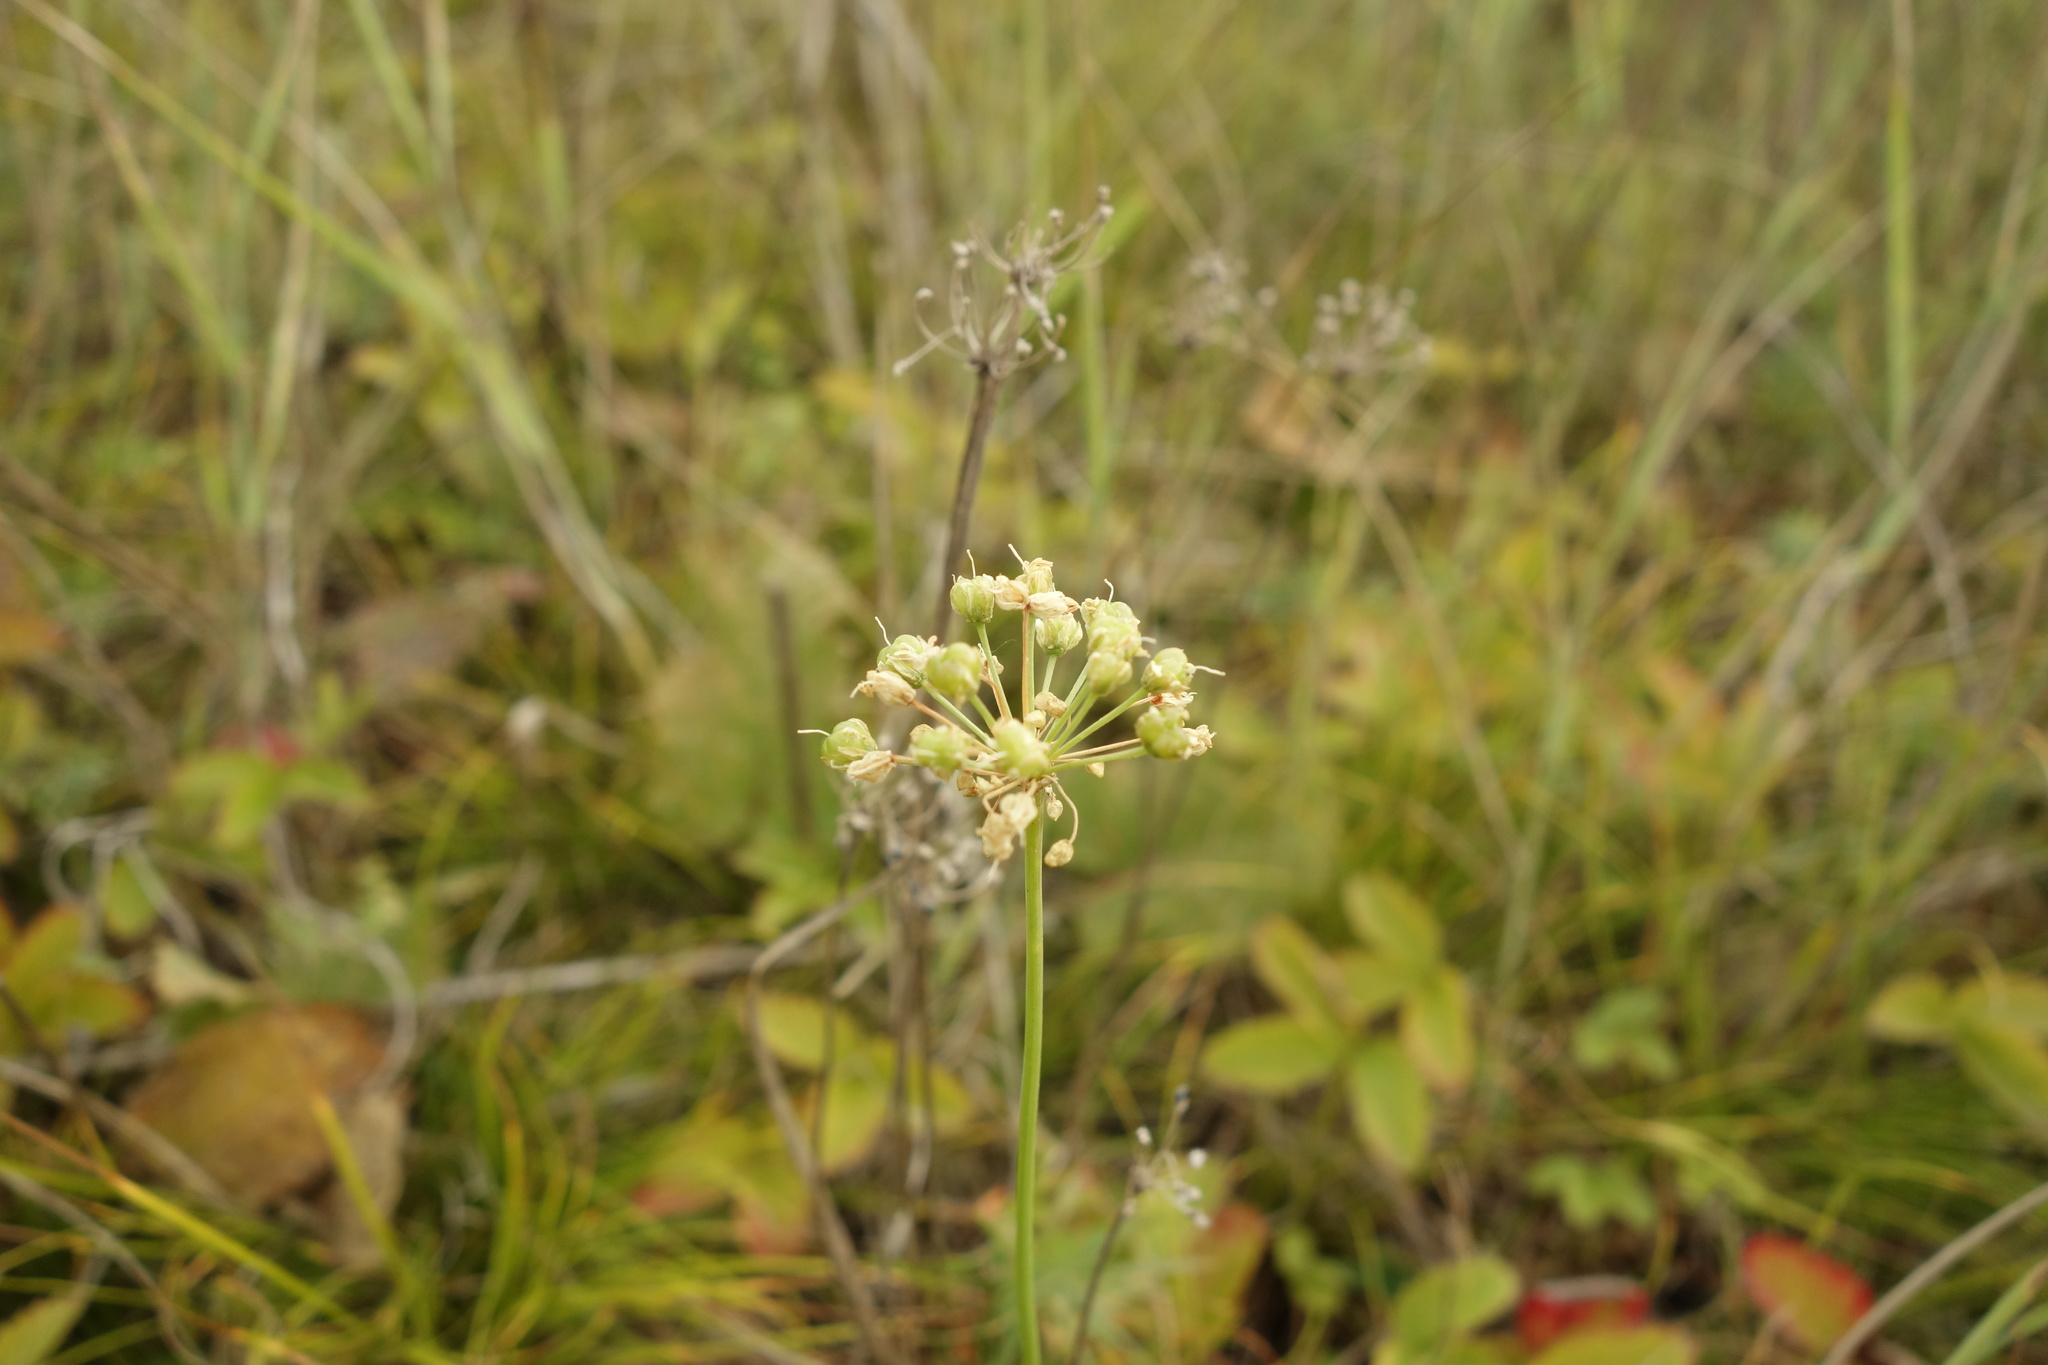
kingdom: Plantae
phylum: Tracheophyta
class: Liliopsida
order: Asparagales
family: Amaryllidaceae
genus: Allium
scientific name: Allium flavescens
